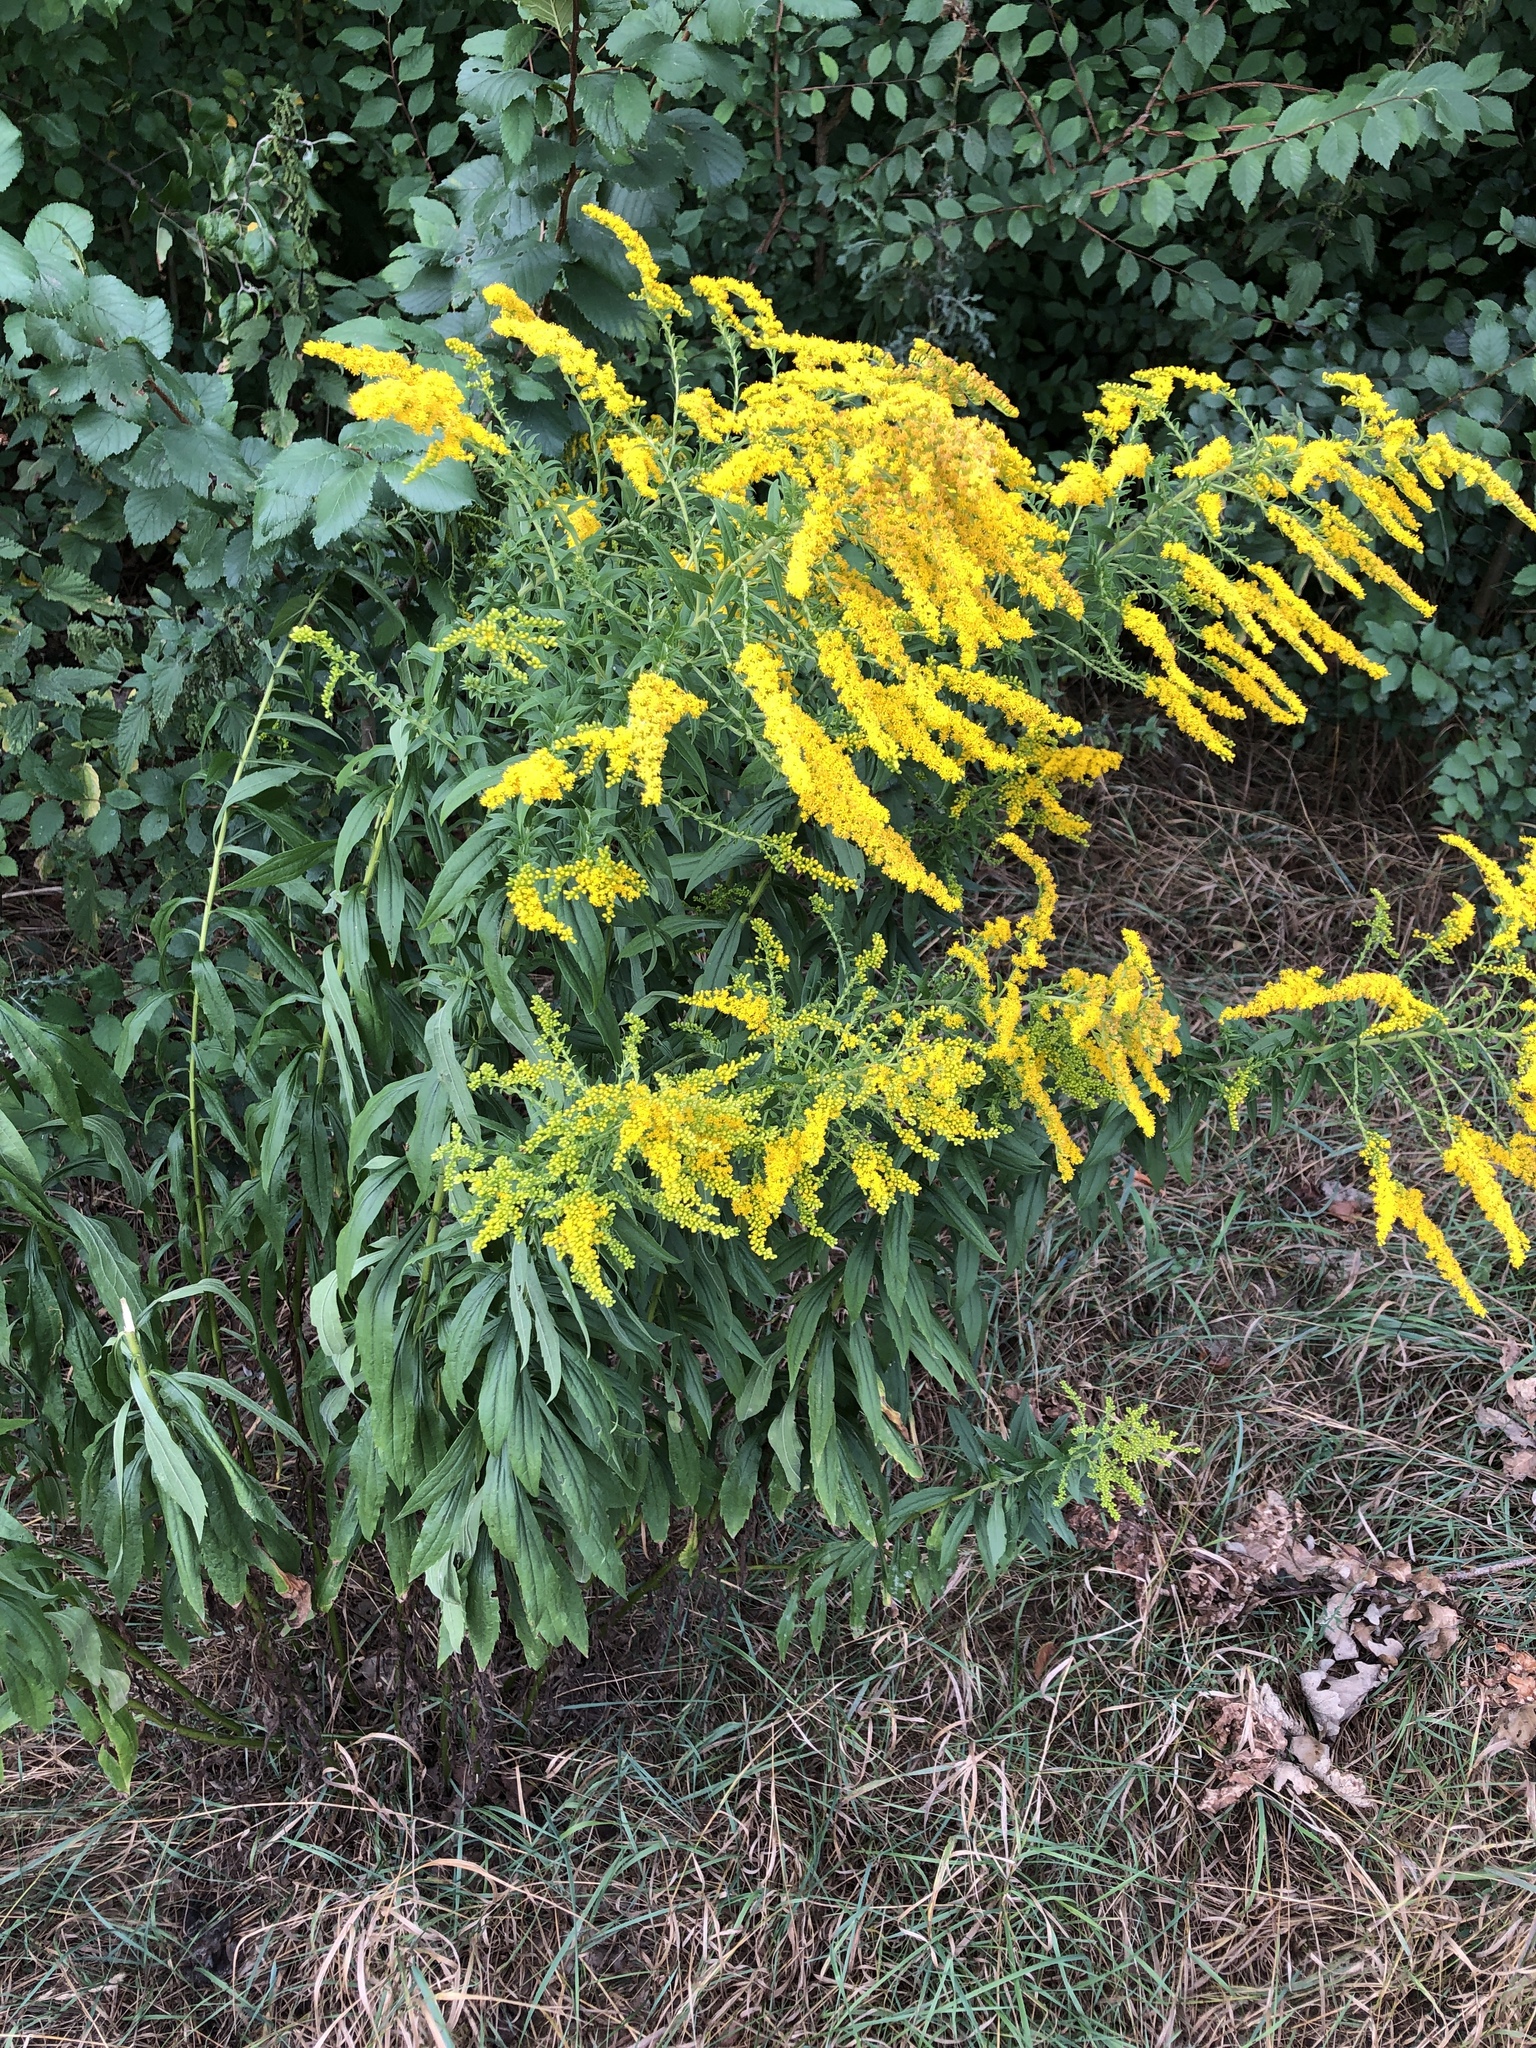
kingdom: Plantae
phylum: Tracheophyta
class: Magnoliopsida
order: Asterales
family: Asteraceae
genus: Solidago
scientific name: Solidago canadensis
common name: Canada goldenrod
